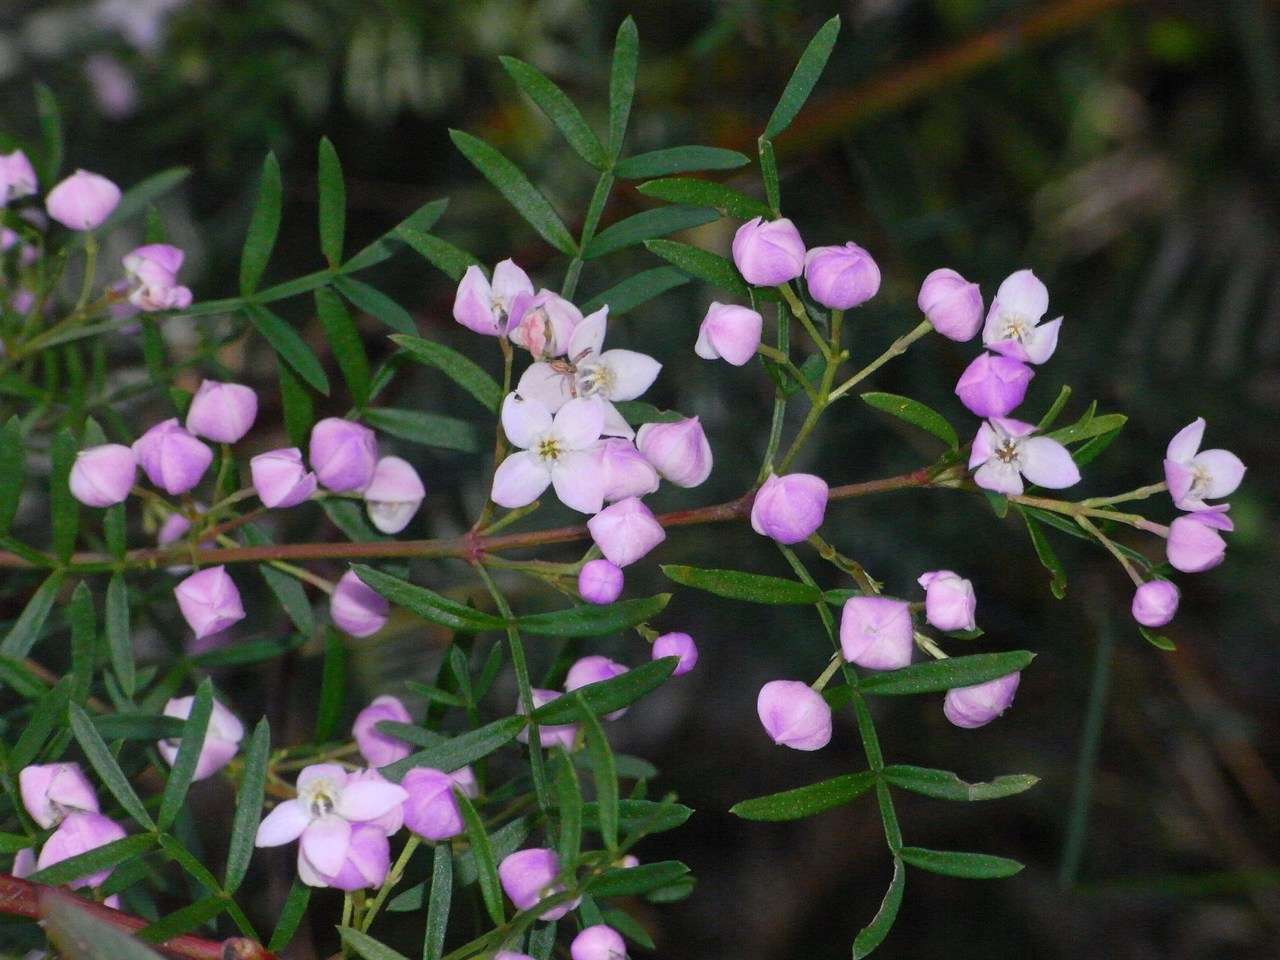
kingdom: Plantae
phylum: Tracheophyta
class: Magnoliopsida
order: Sapindales
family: Rutaceae
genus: Boronia
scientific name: Boronia muelleri
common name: Forest boronia
